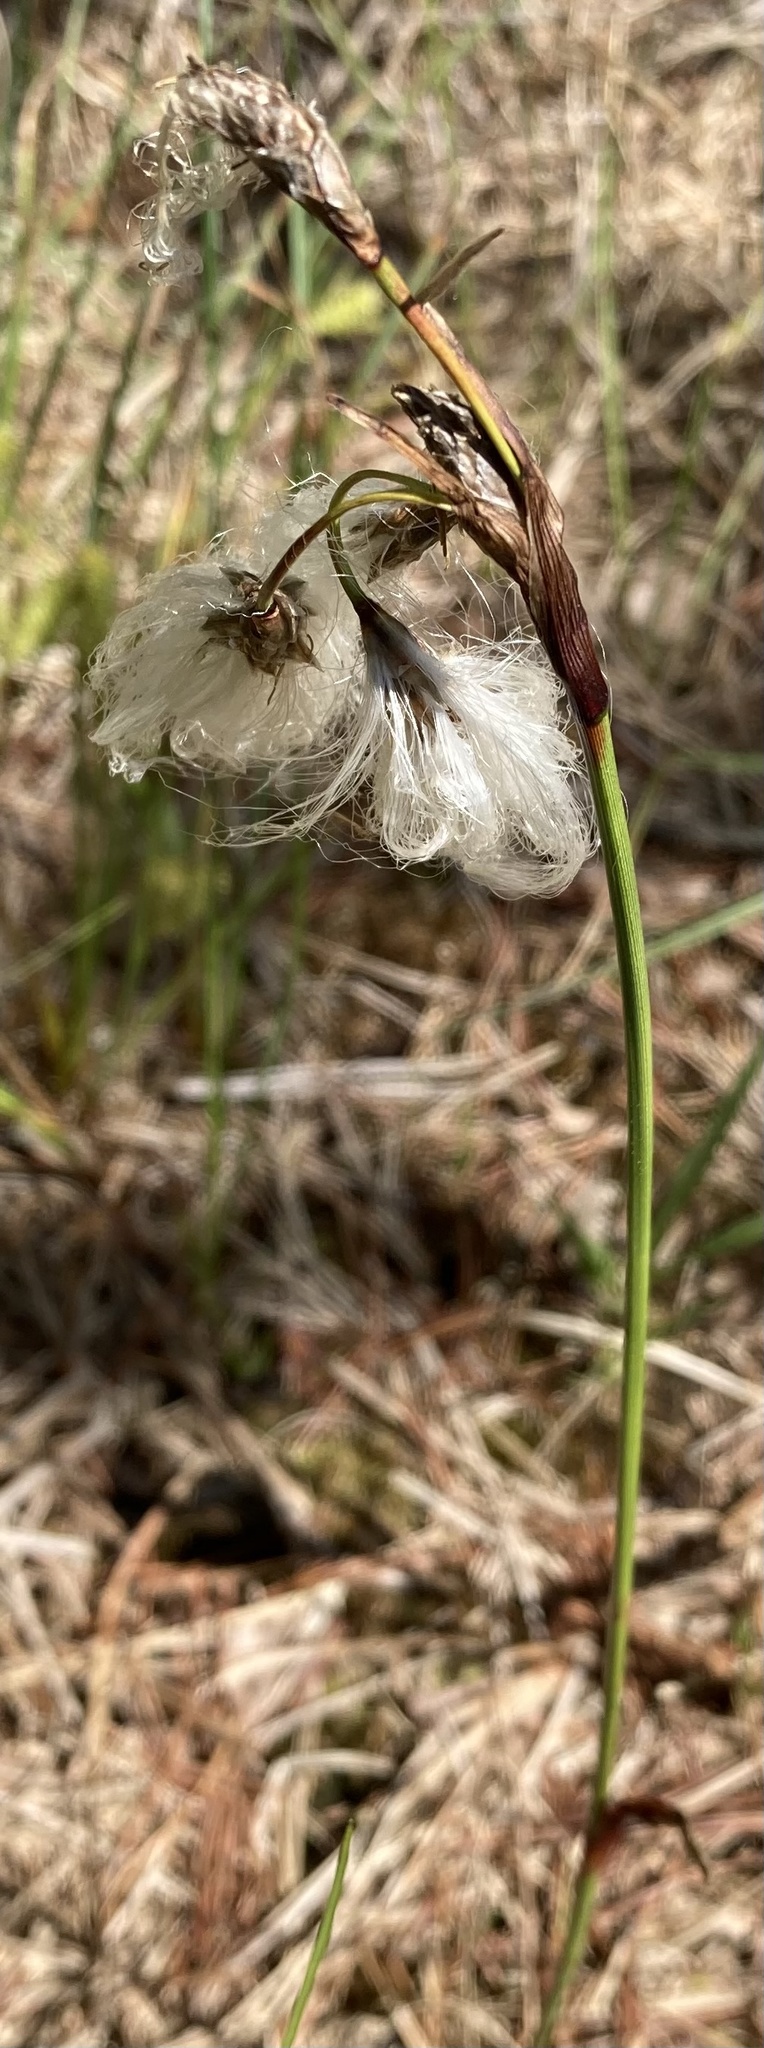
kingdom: Plantae
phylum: Tracheophyta
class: Liliopsida
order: Poales
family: Cyperaceae
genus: Eriophorum
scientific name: Eriophorum angustifolium
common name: Common cottongrass
